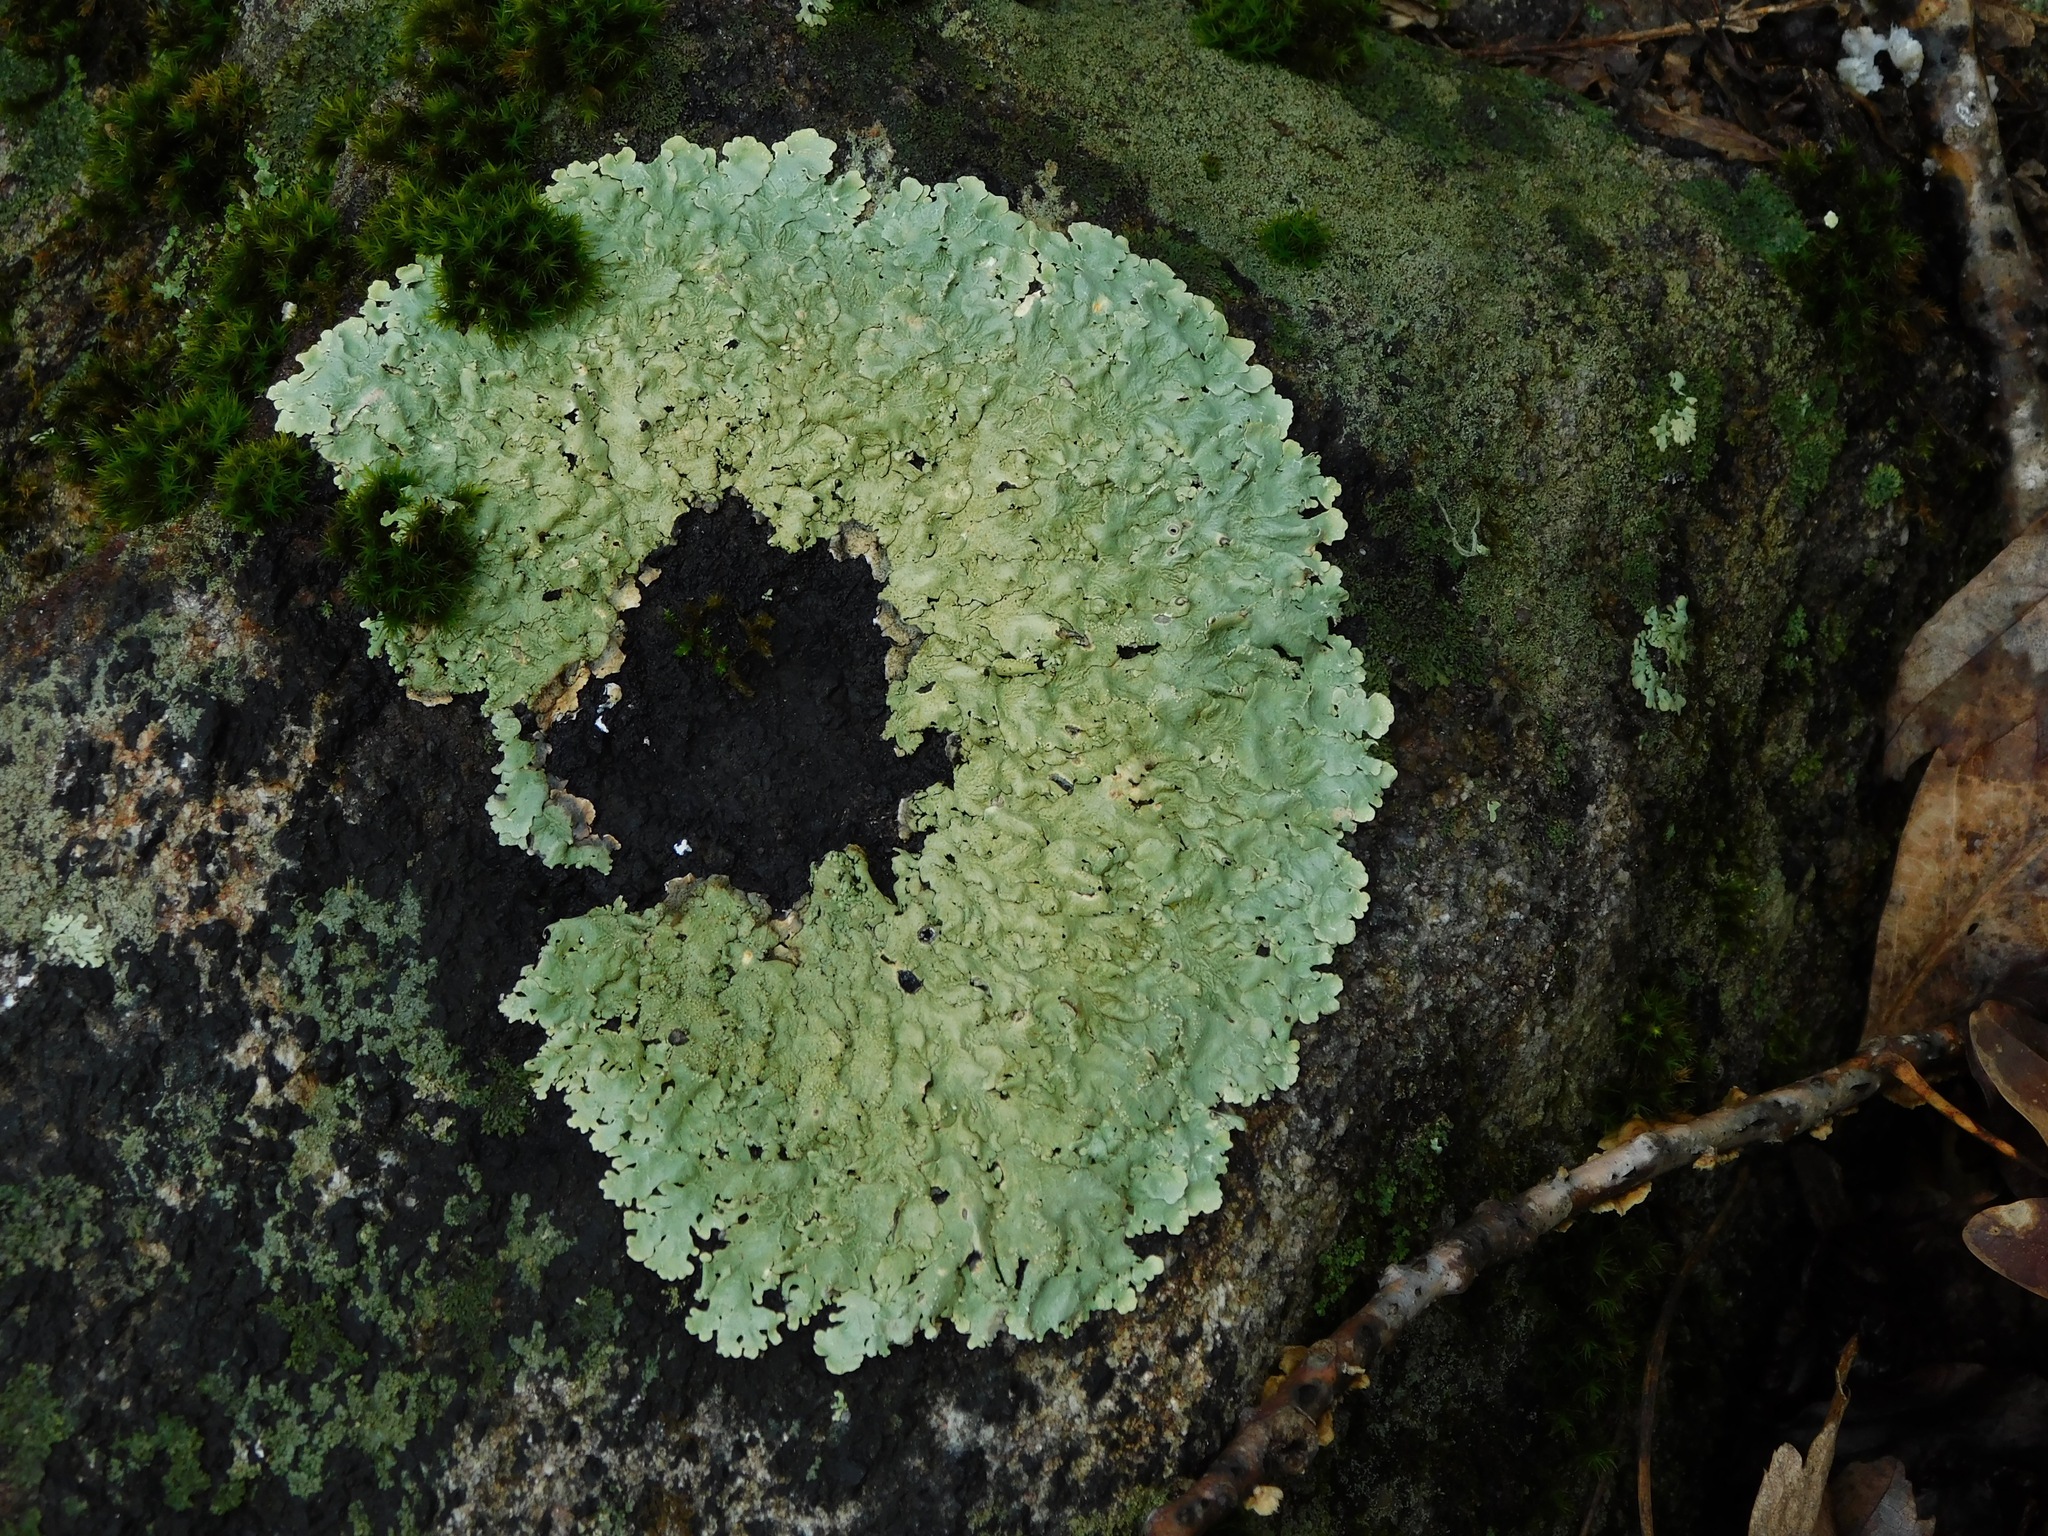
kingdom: Fungi
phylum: Ascomycota
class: Lecanoromycetes
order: Lecanorales
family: Parmeliaceae
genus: Flavoparmelia
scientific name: Flavoparmelia baltimorensis
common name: Rock greenshield
